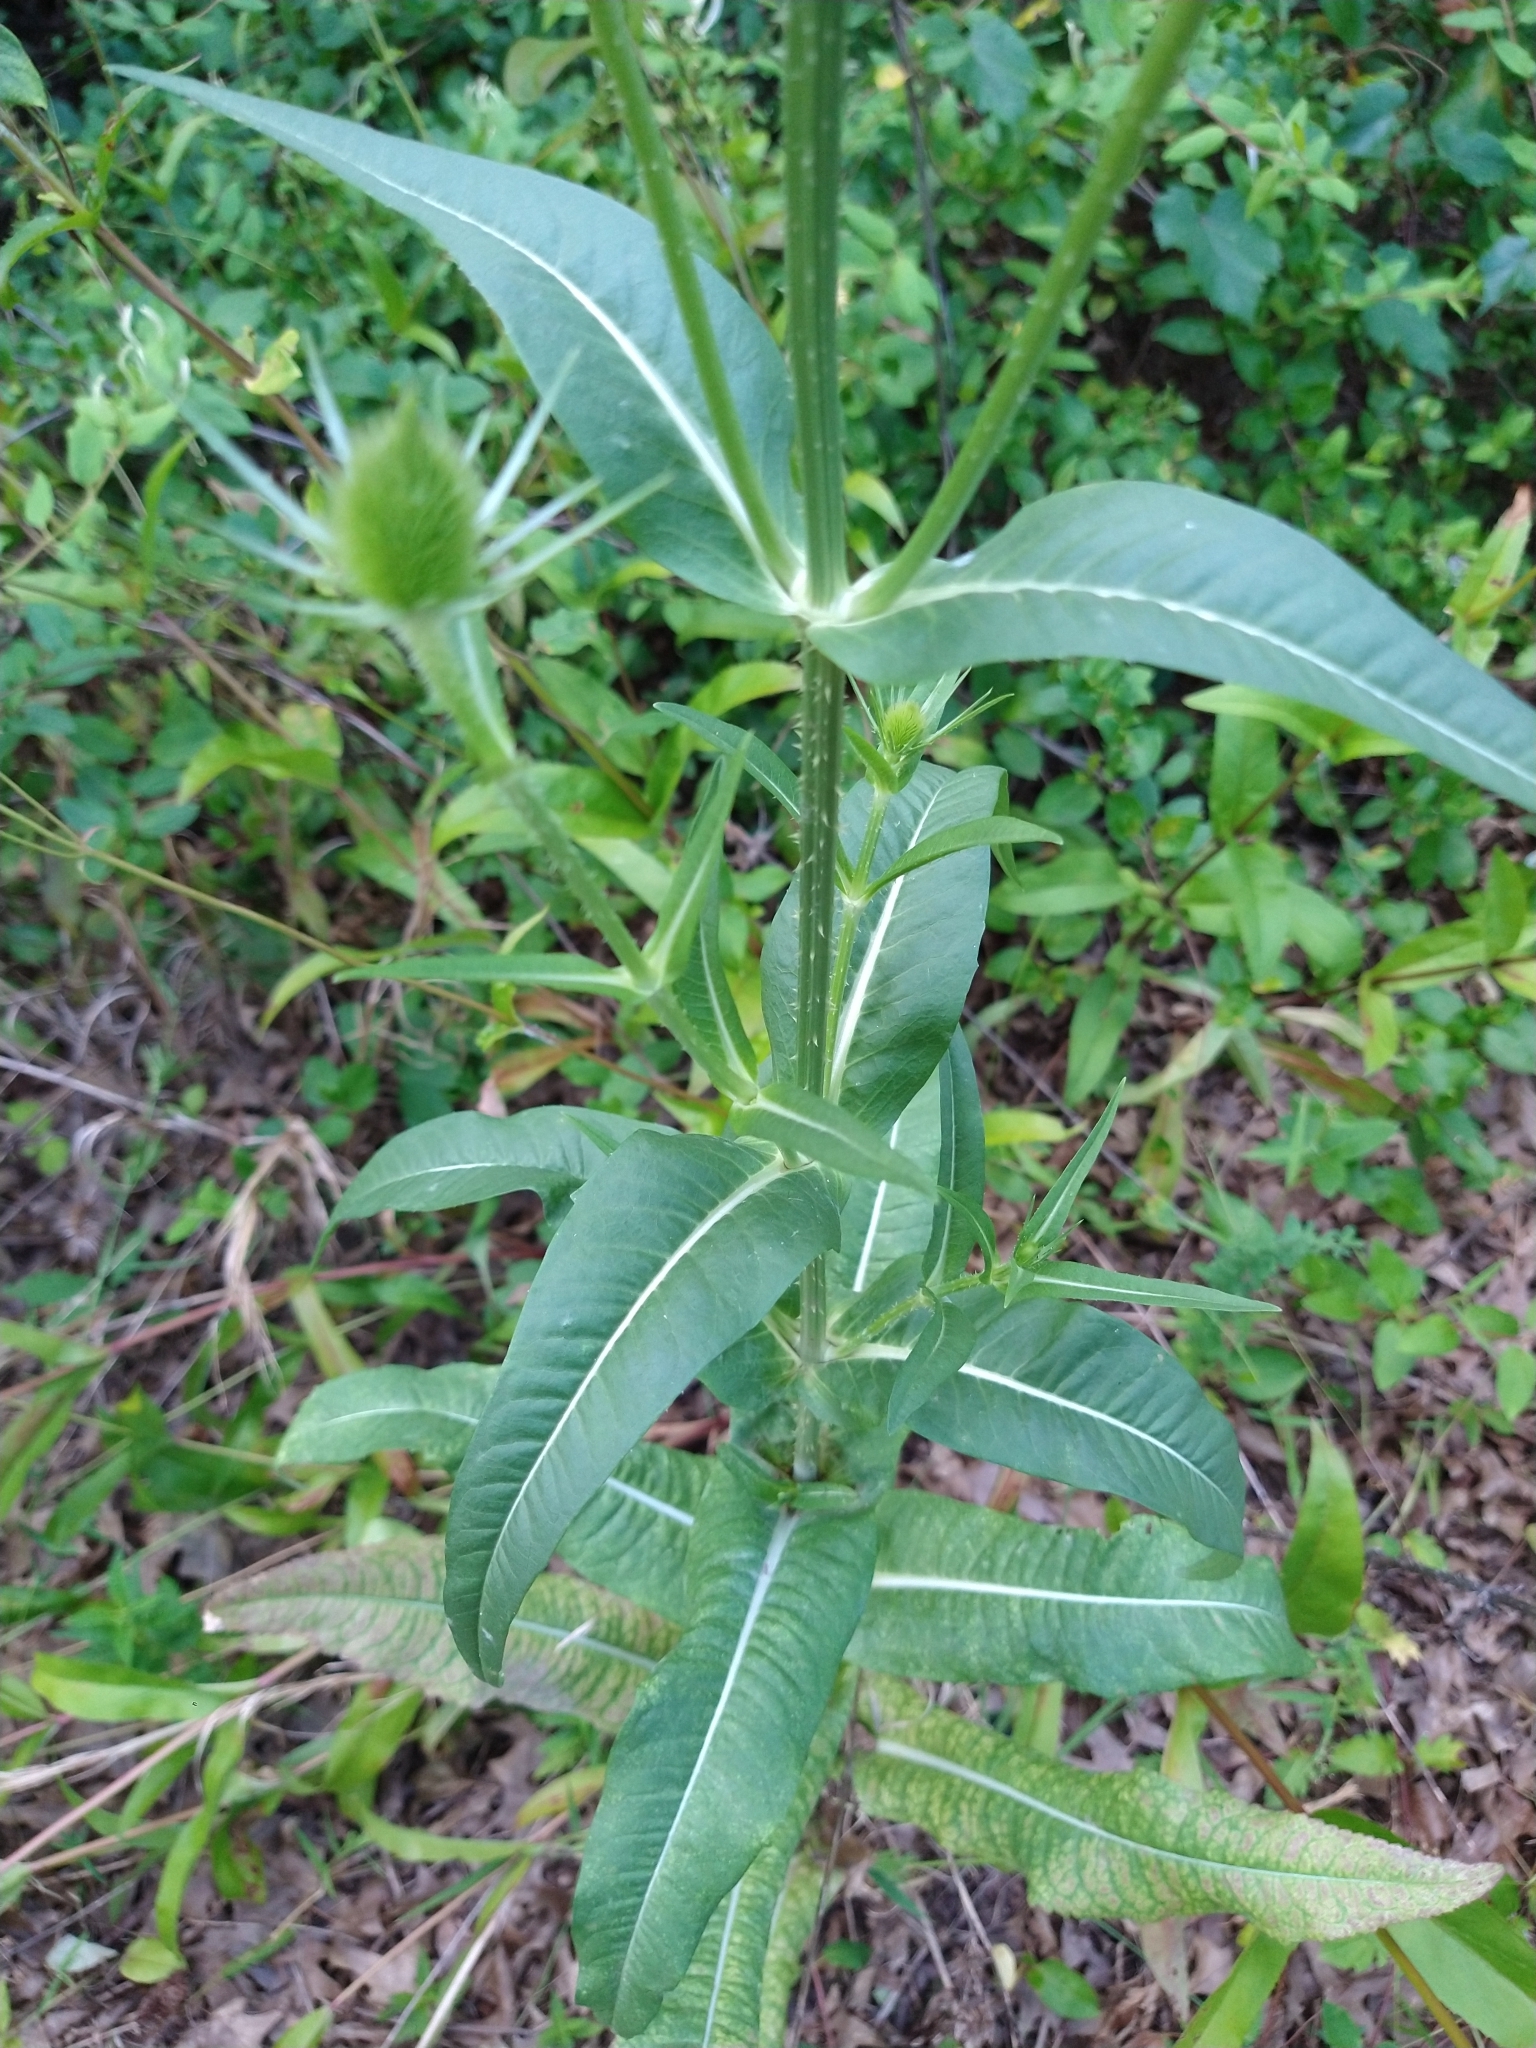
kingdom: Plantae
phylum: Tracheophyta
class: Magnoliopsida
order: Dipsacales
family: Caprifoliaceae
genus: Dipsacus
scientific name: Dipsacus fullonum
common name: Teasel
